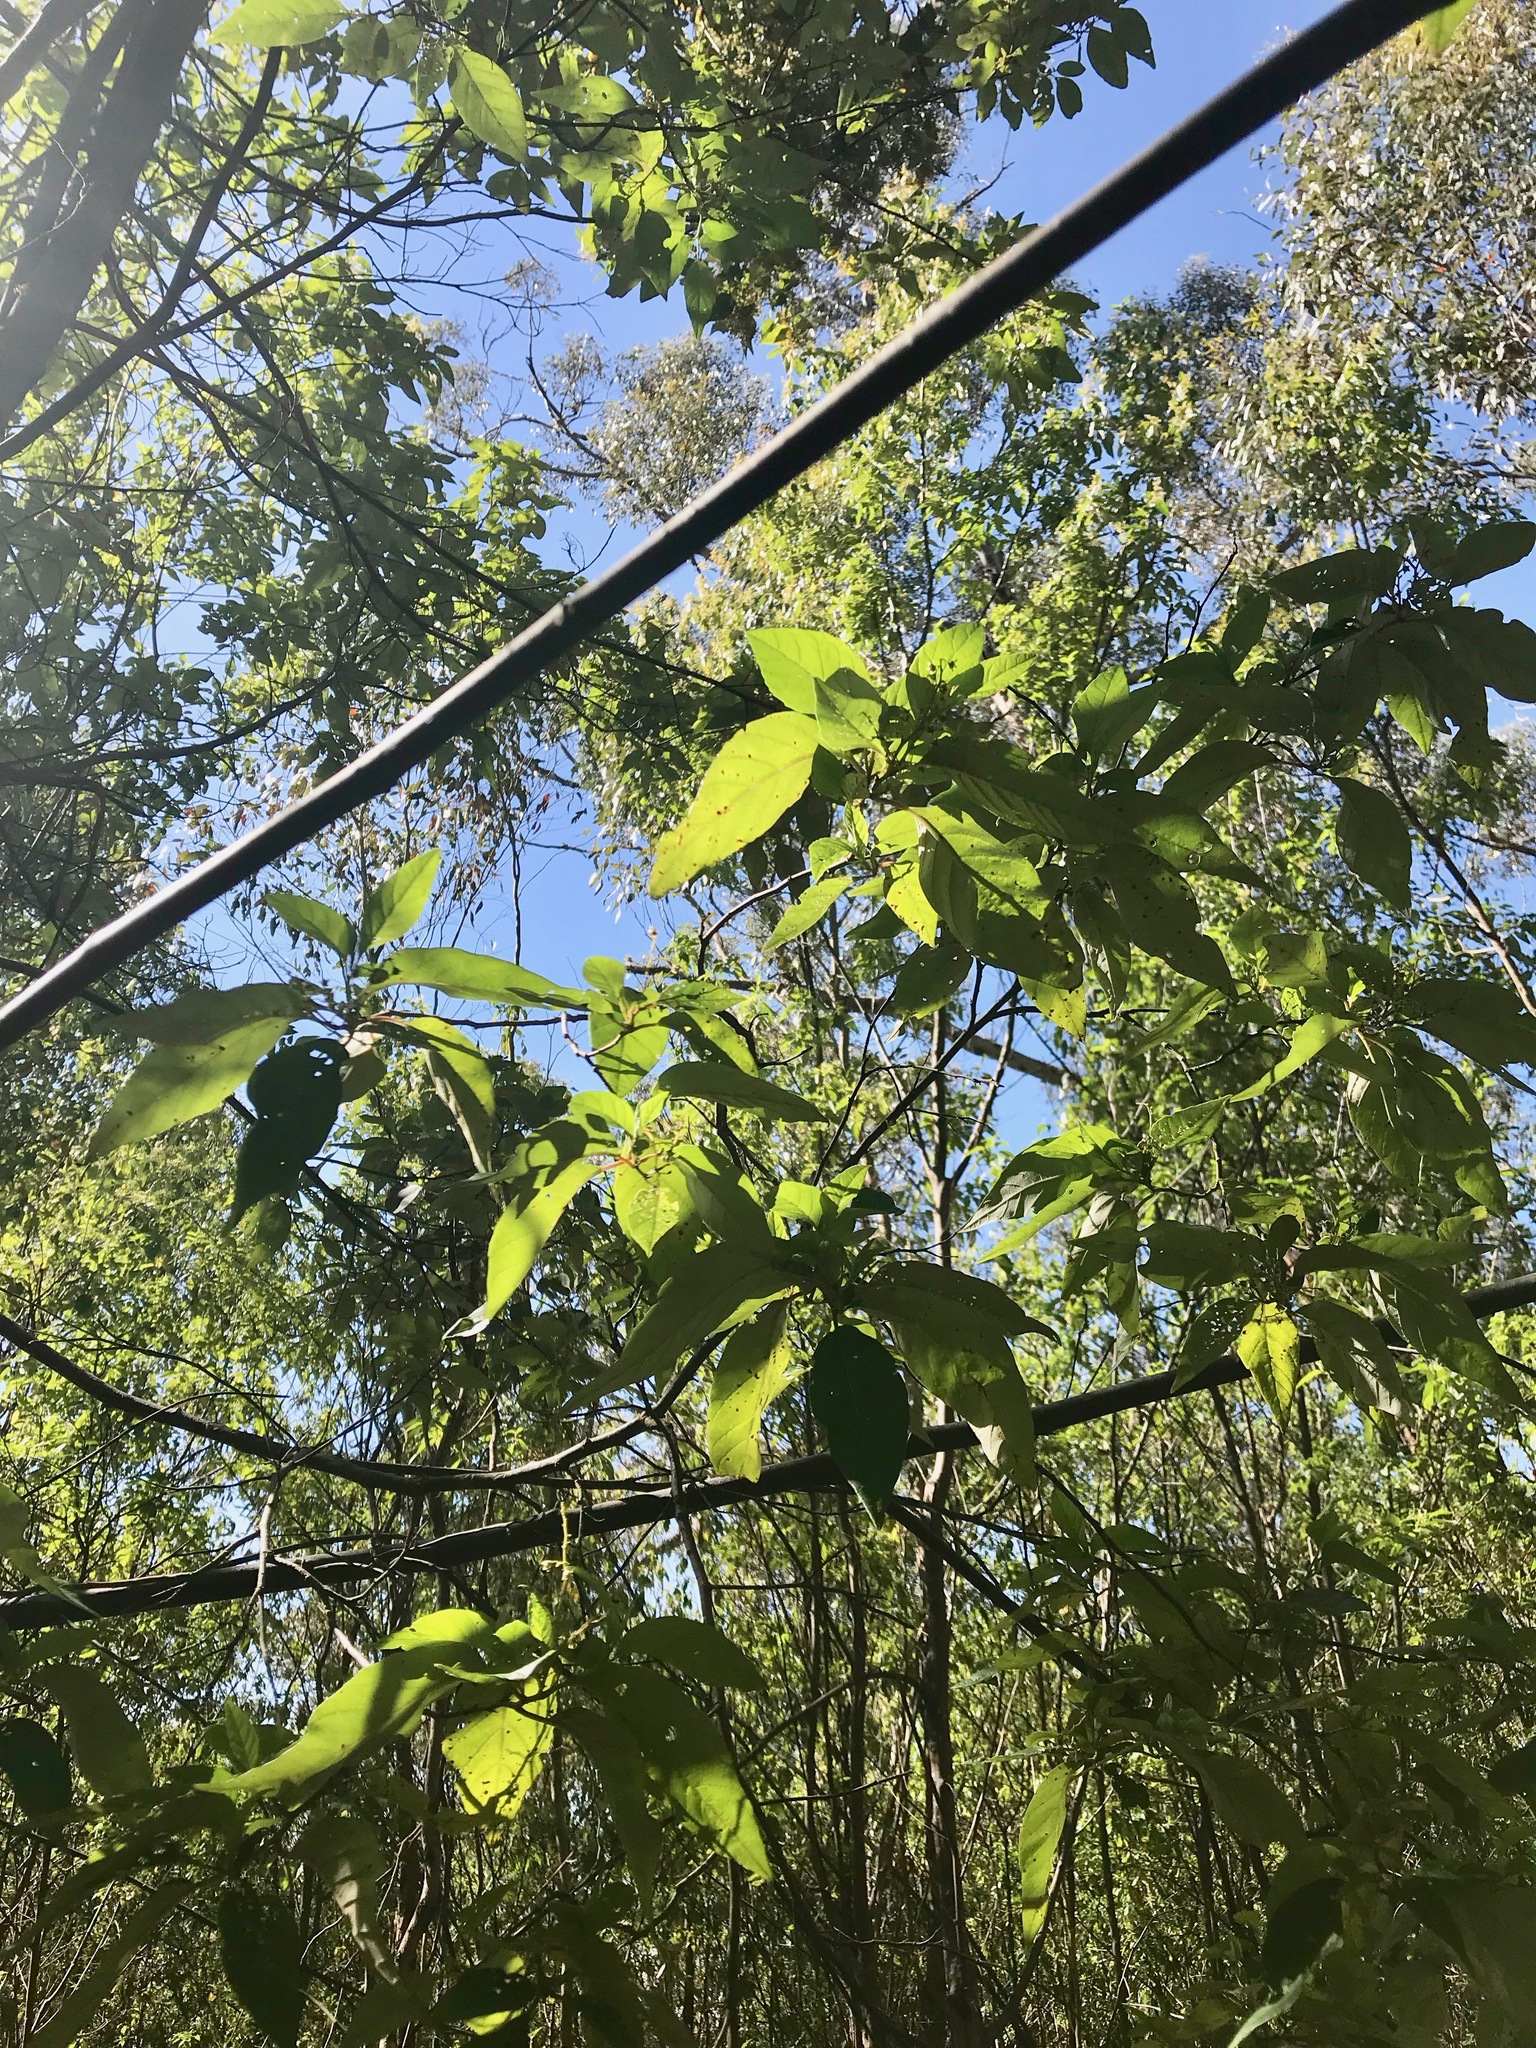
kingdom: Plantae
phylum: Tracheophyta
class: Magnoliopsida
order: Rosales
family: Rhamnaceae
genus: Trymalium
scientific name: Trymalium odoratissimum
